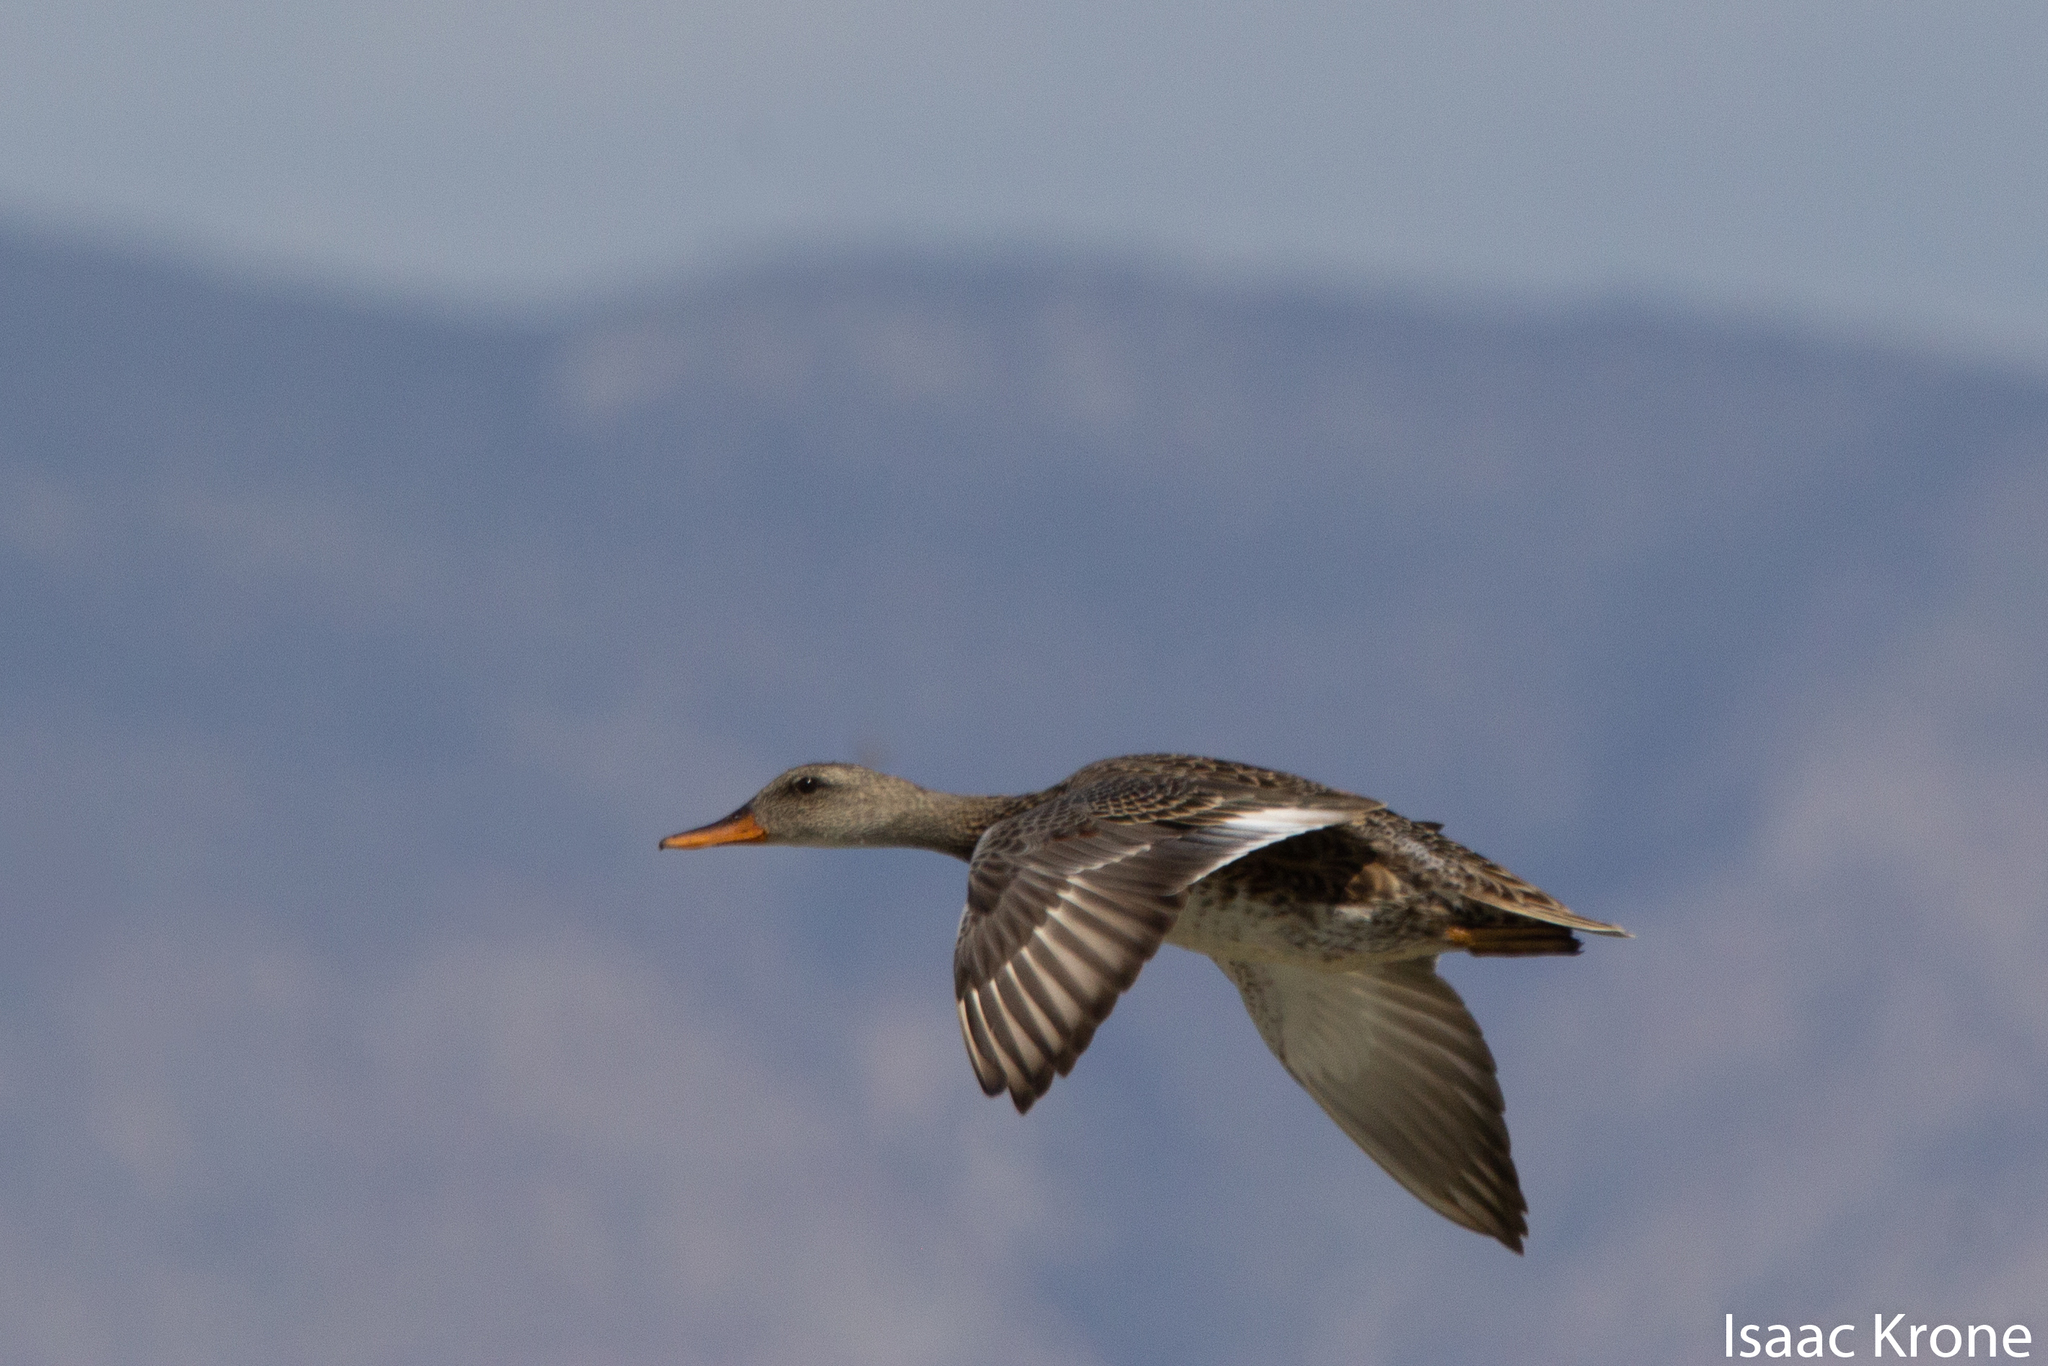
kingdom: Animalia
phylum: Chordata
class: Aves
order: Anseriformes
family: Anatidae
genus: Mareca
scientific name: Mareca strepera
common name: Gadwall
